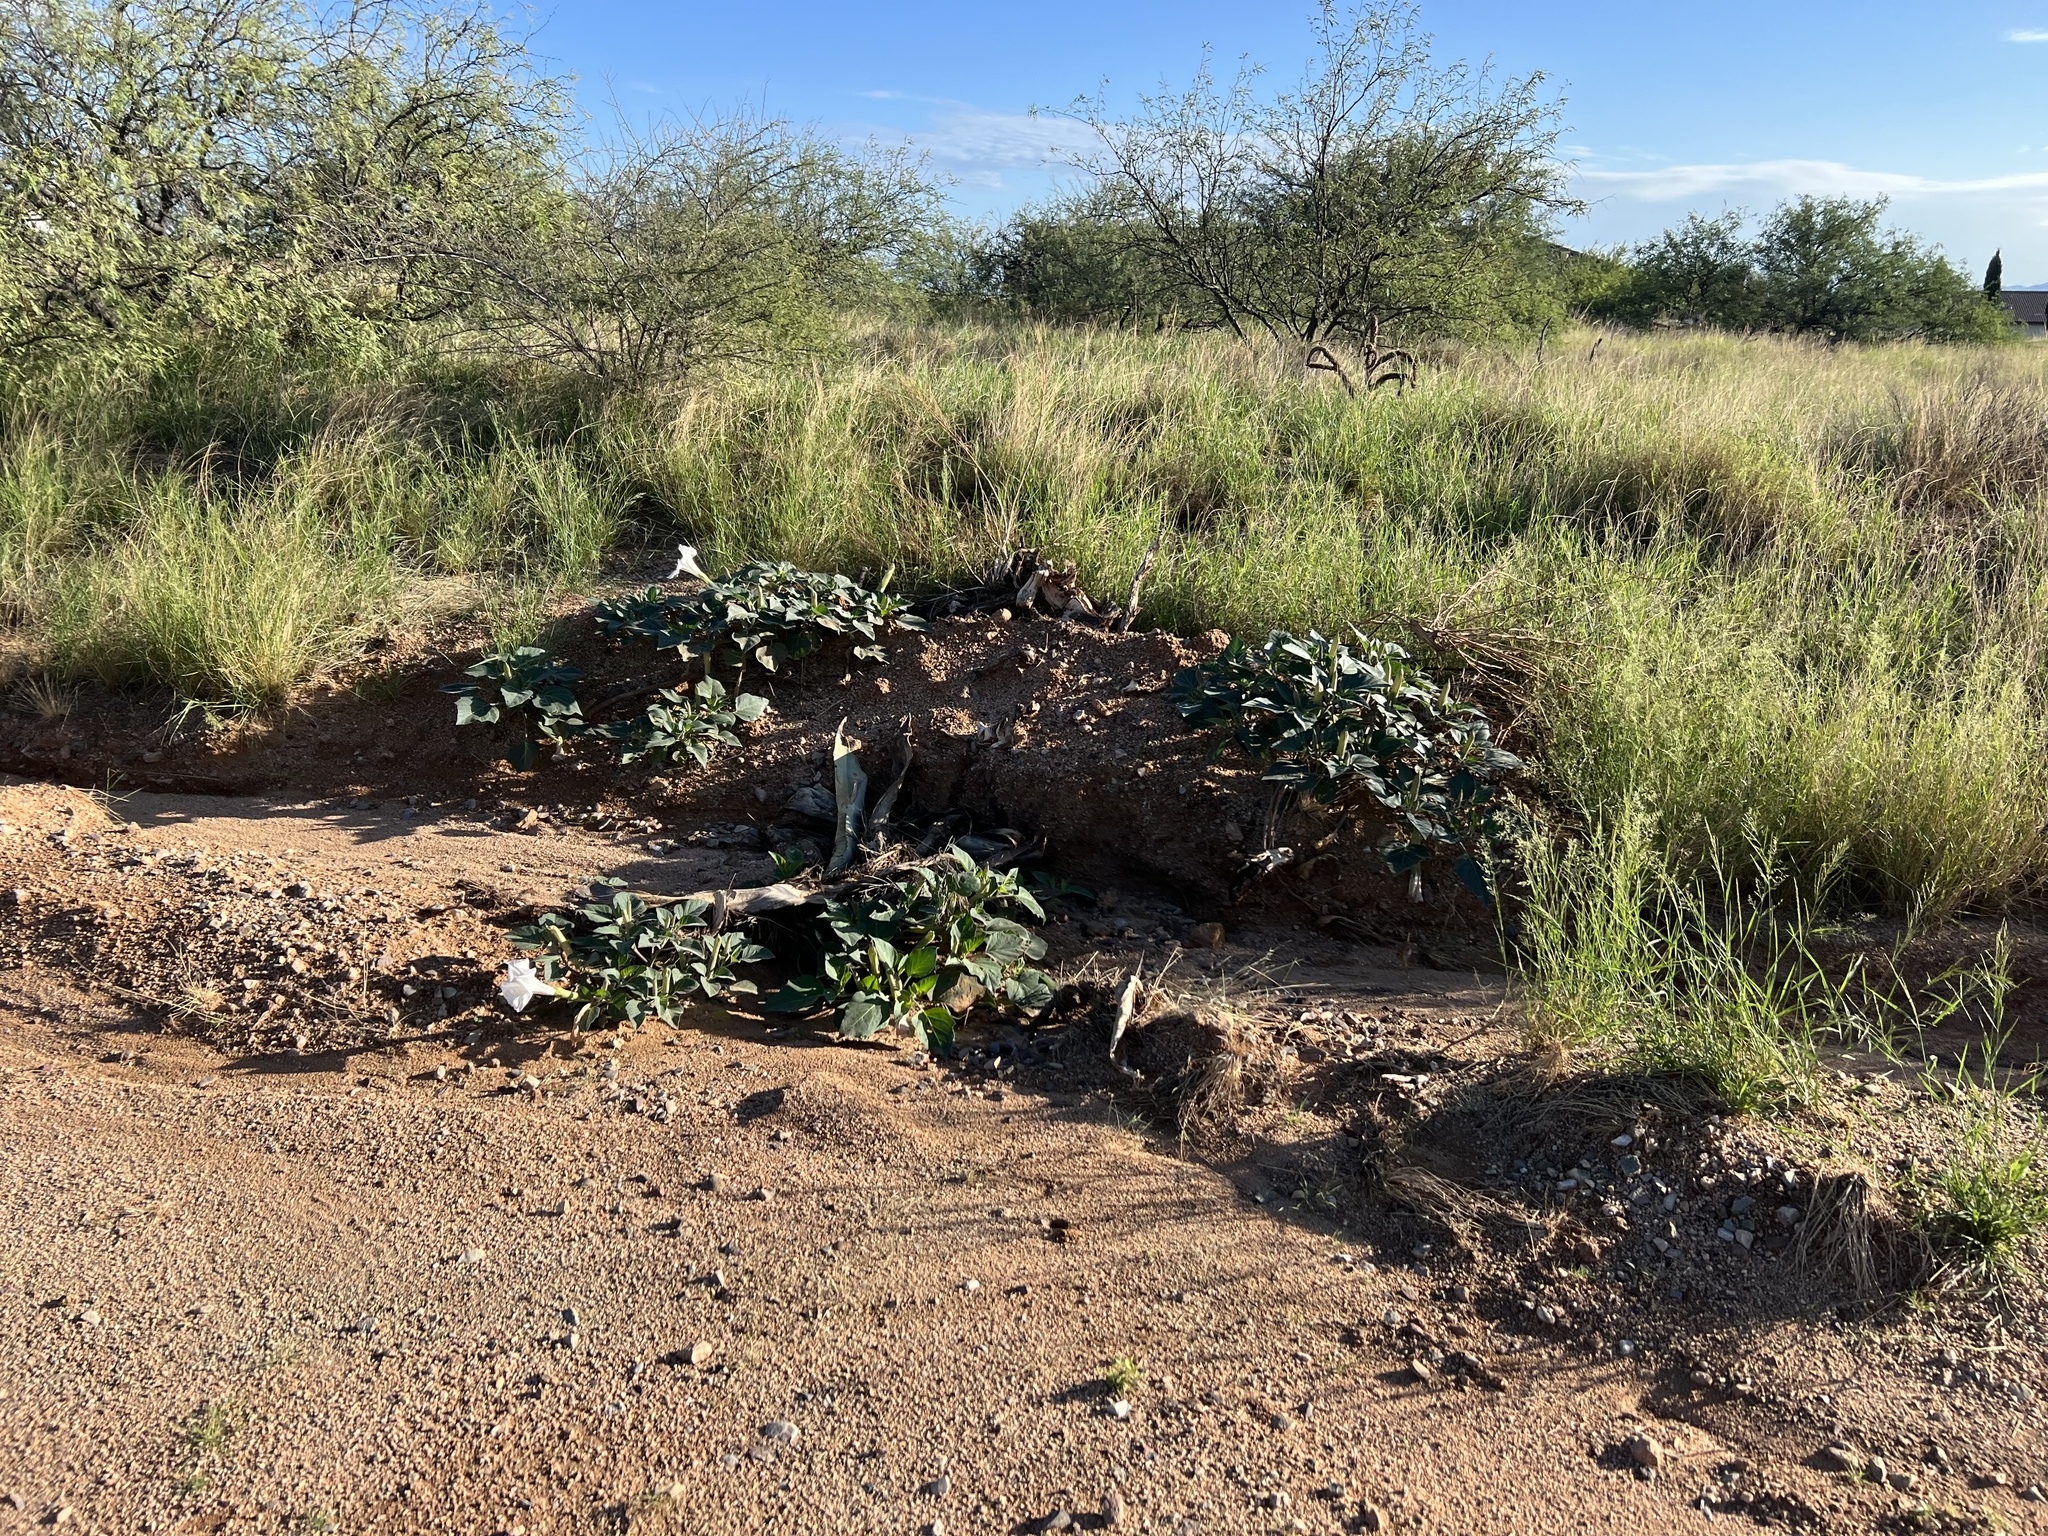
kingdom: Plantae
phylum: Tracheophyta
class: Magnoliopsida
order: Solanales
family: Solanaceae
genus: Datura
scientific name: Datura wrightii
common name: Sacred thorn-apple
